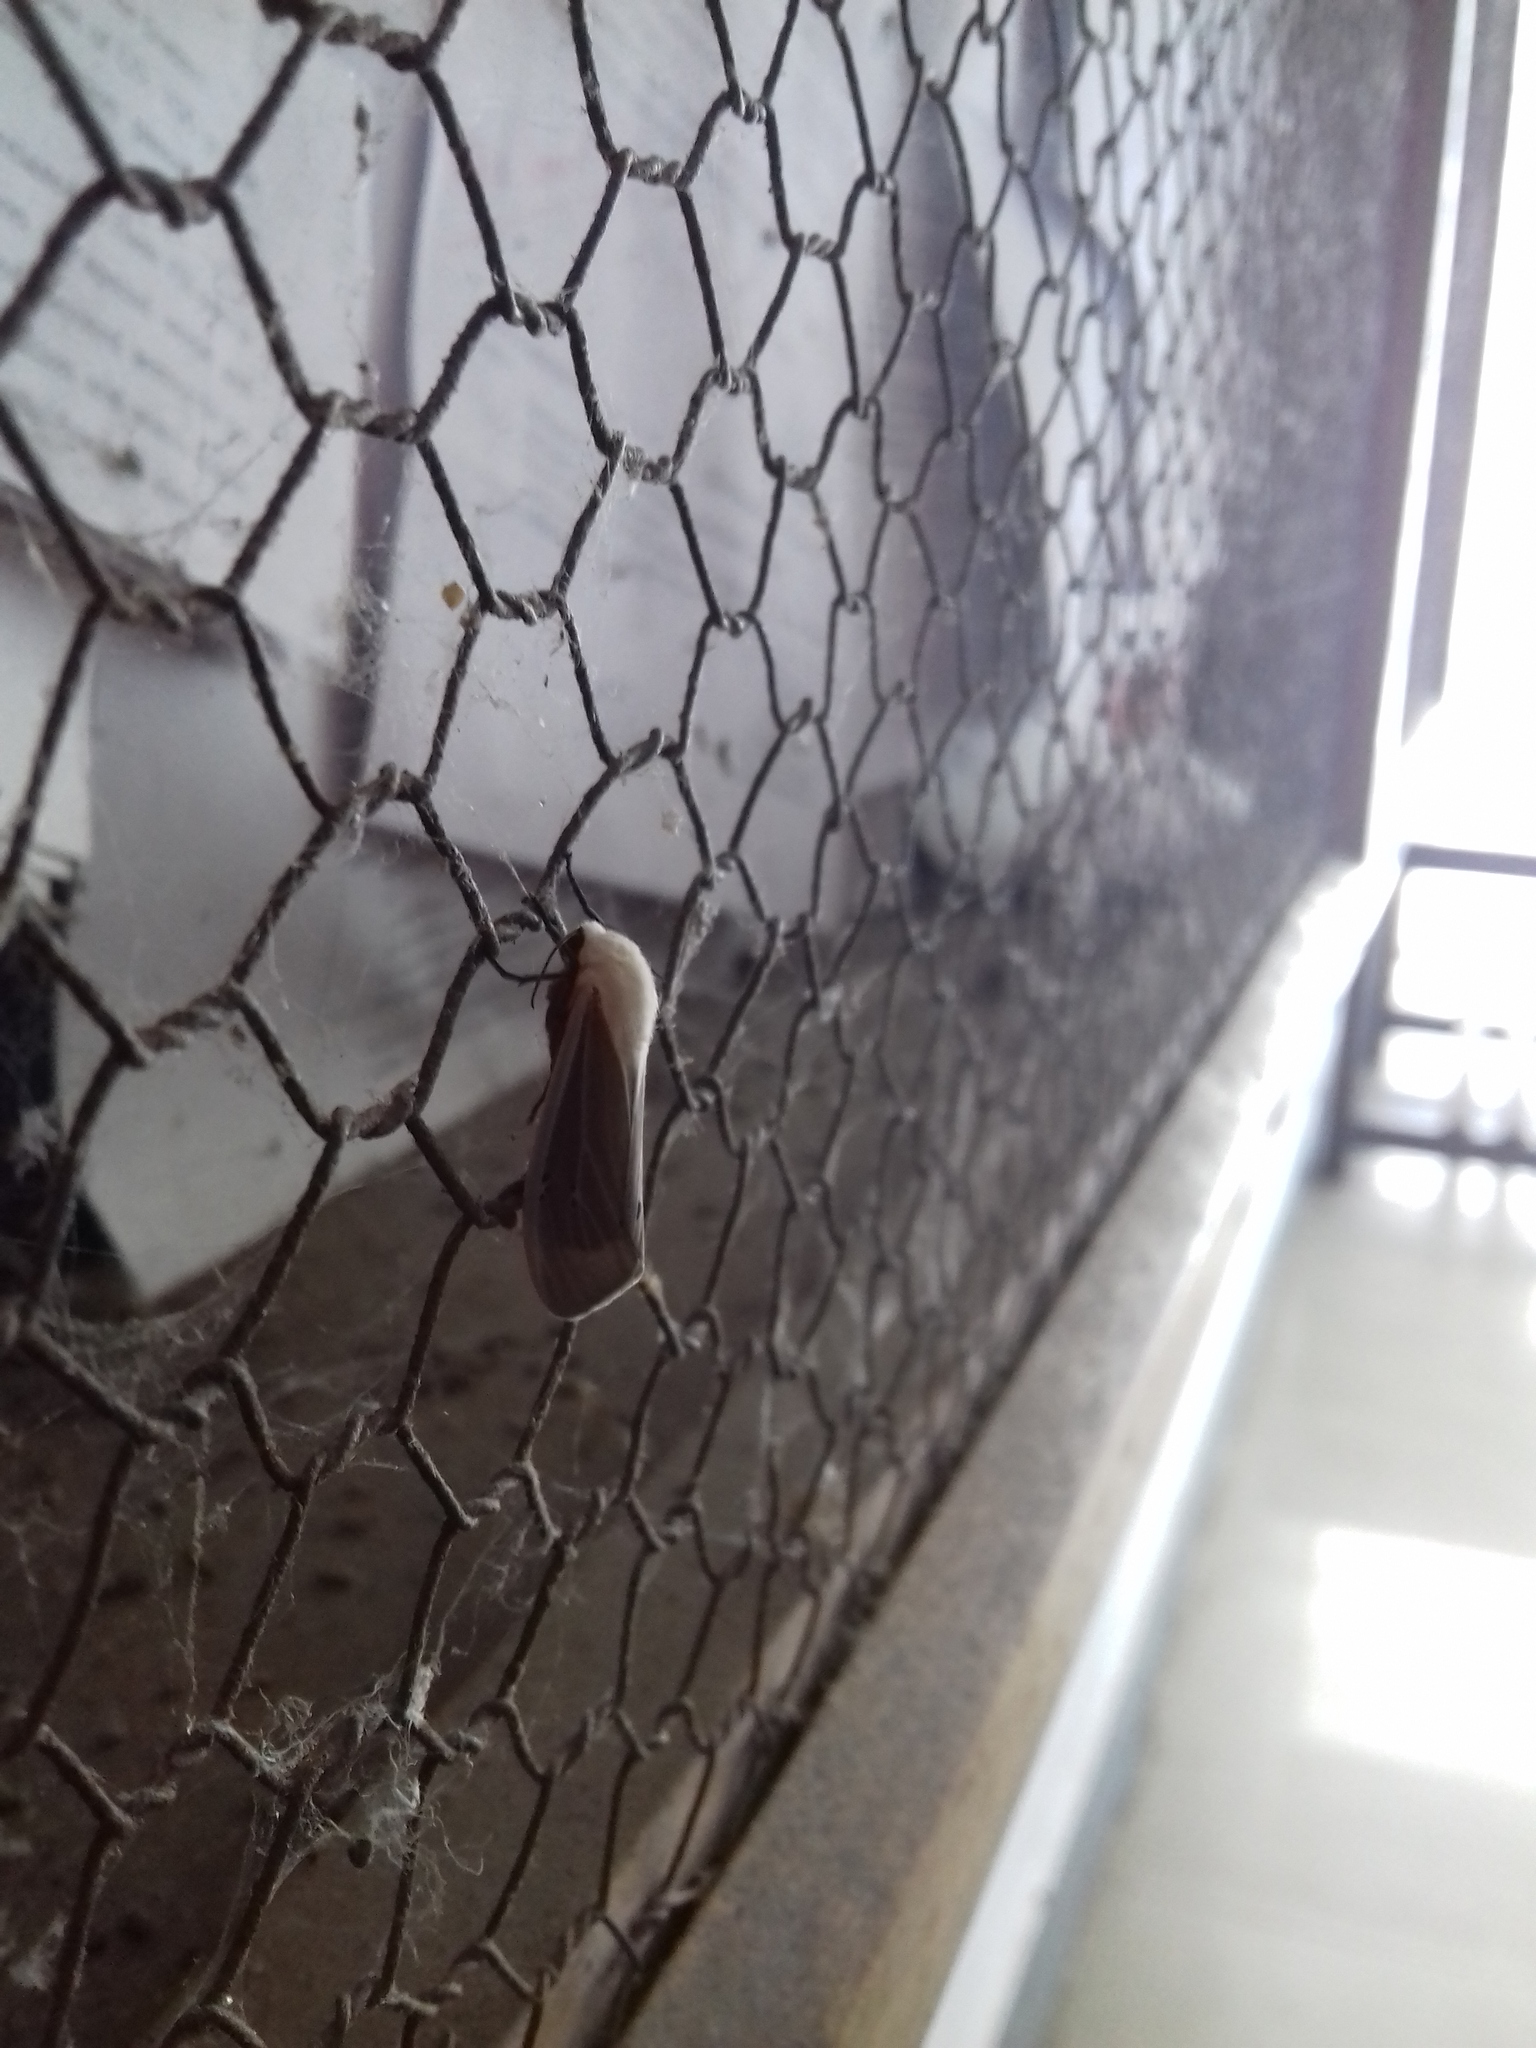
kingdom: Animalia
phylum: Arthropoda
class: Insecta
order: Lepidoptera
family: Erebidae
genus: Creatonotos
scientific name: Creatonotos transiens
